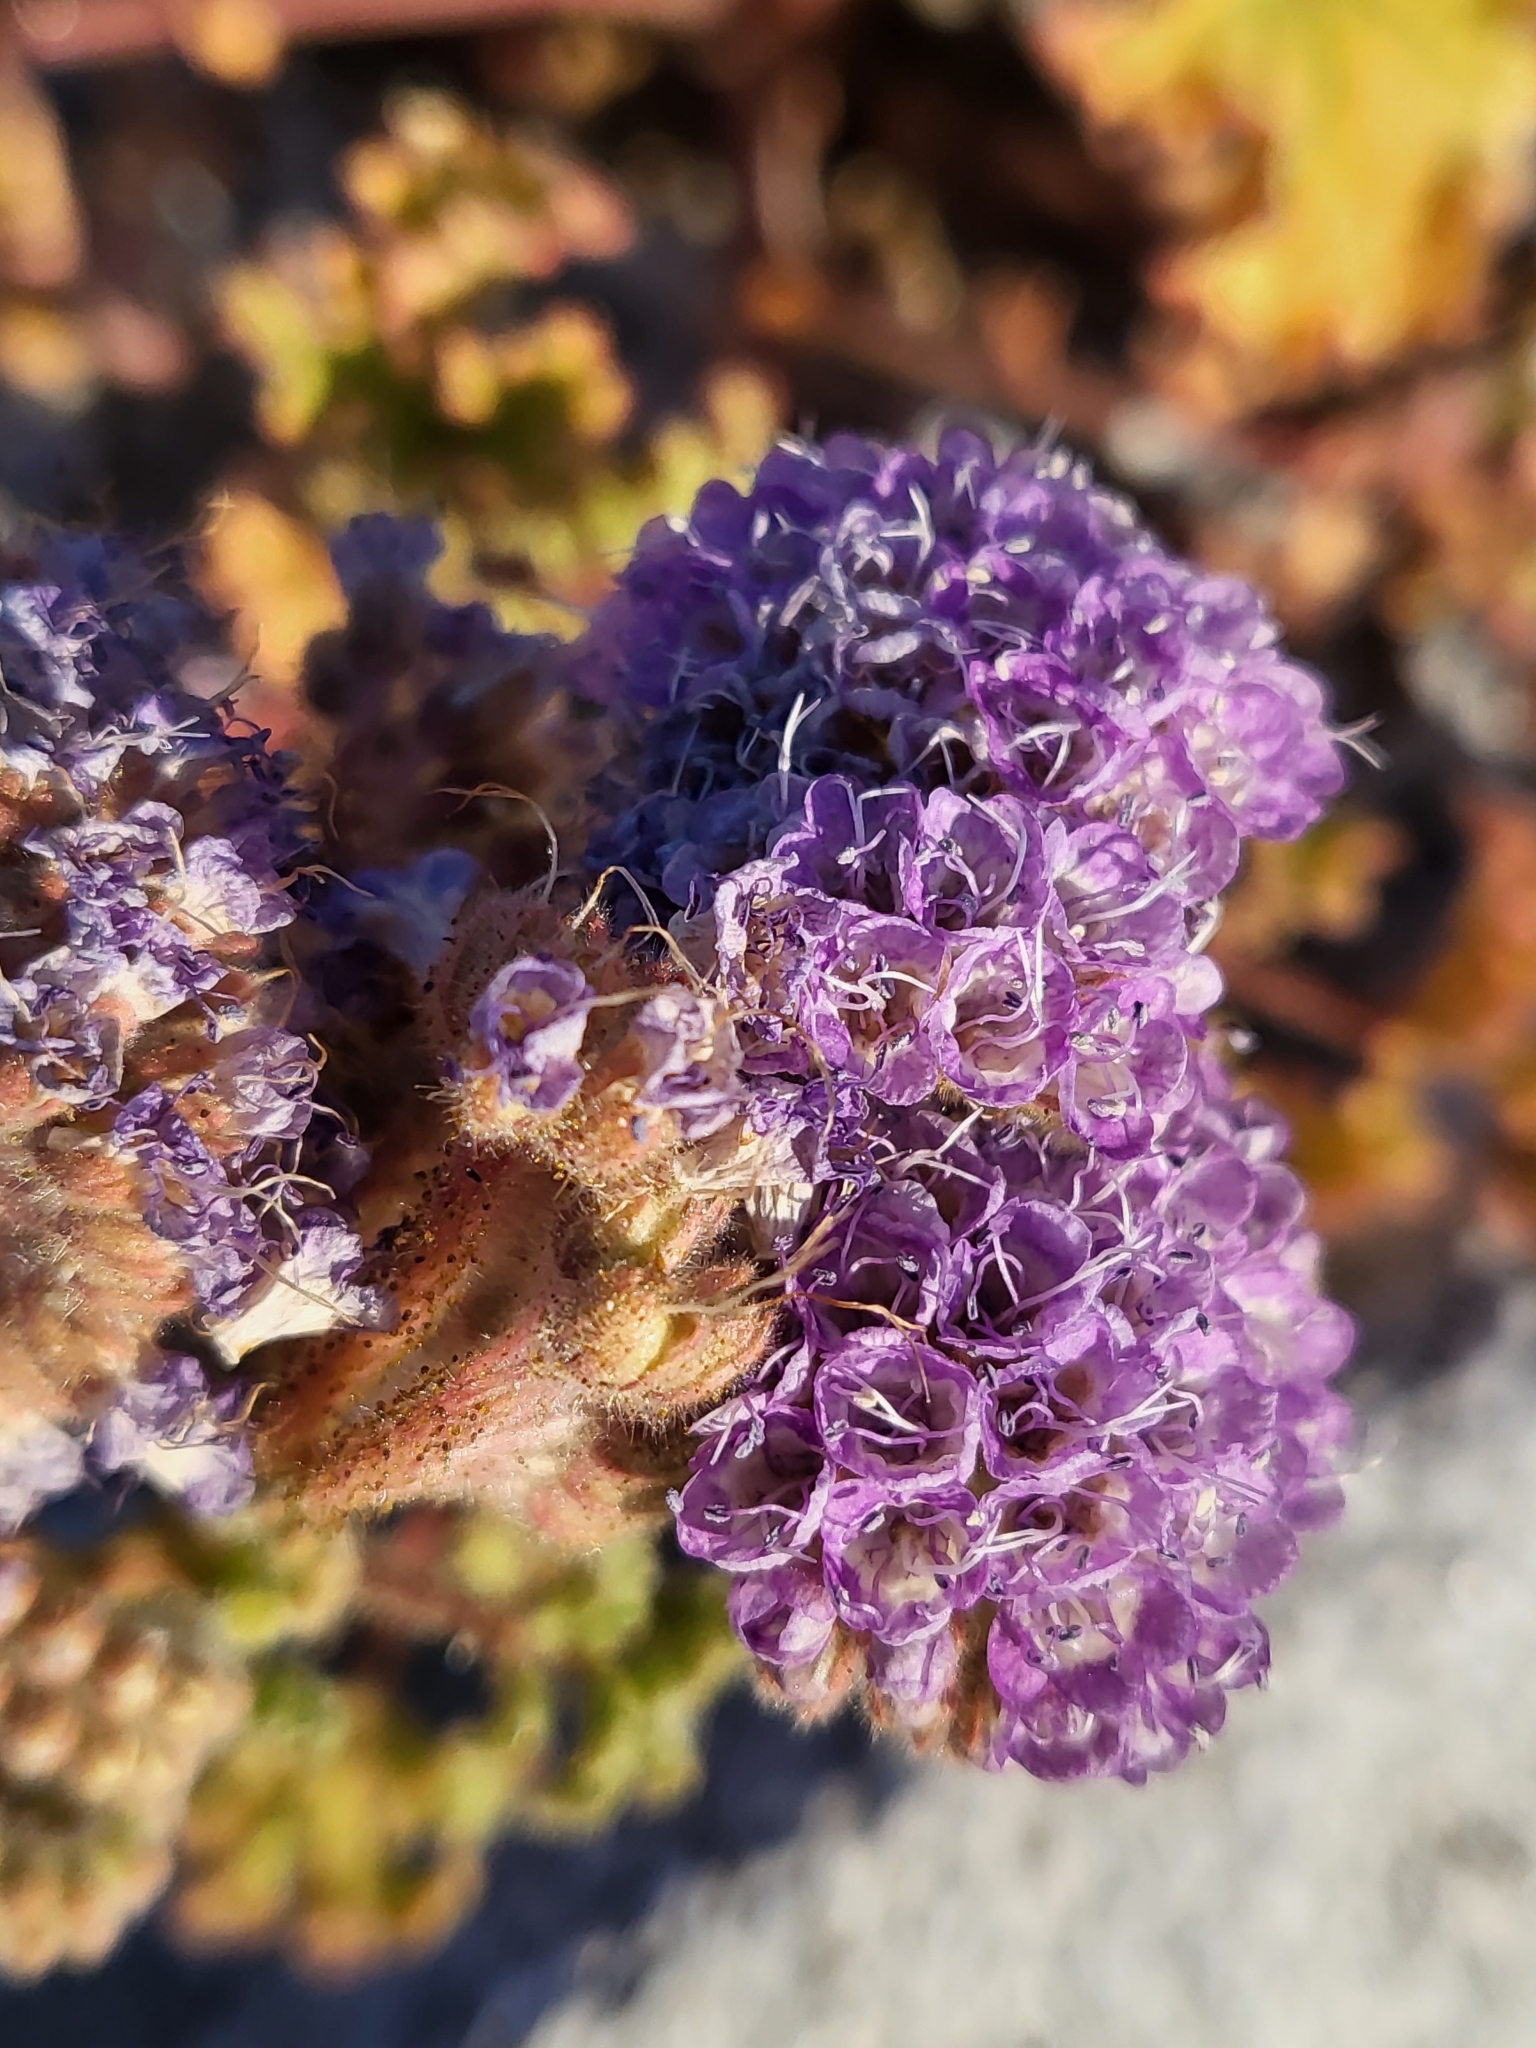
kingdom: Plantae
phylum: Tracheophyta
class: Magnoliopsida
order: Boraginales
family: Hydrophyllaceae
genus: Phacelia
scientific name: Phacelia pedicellata
